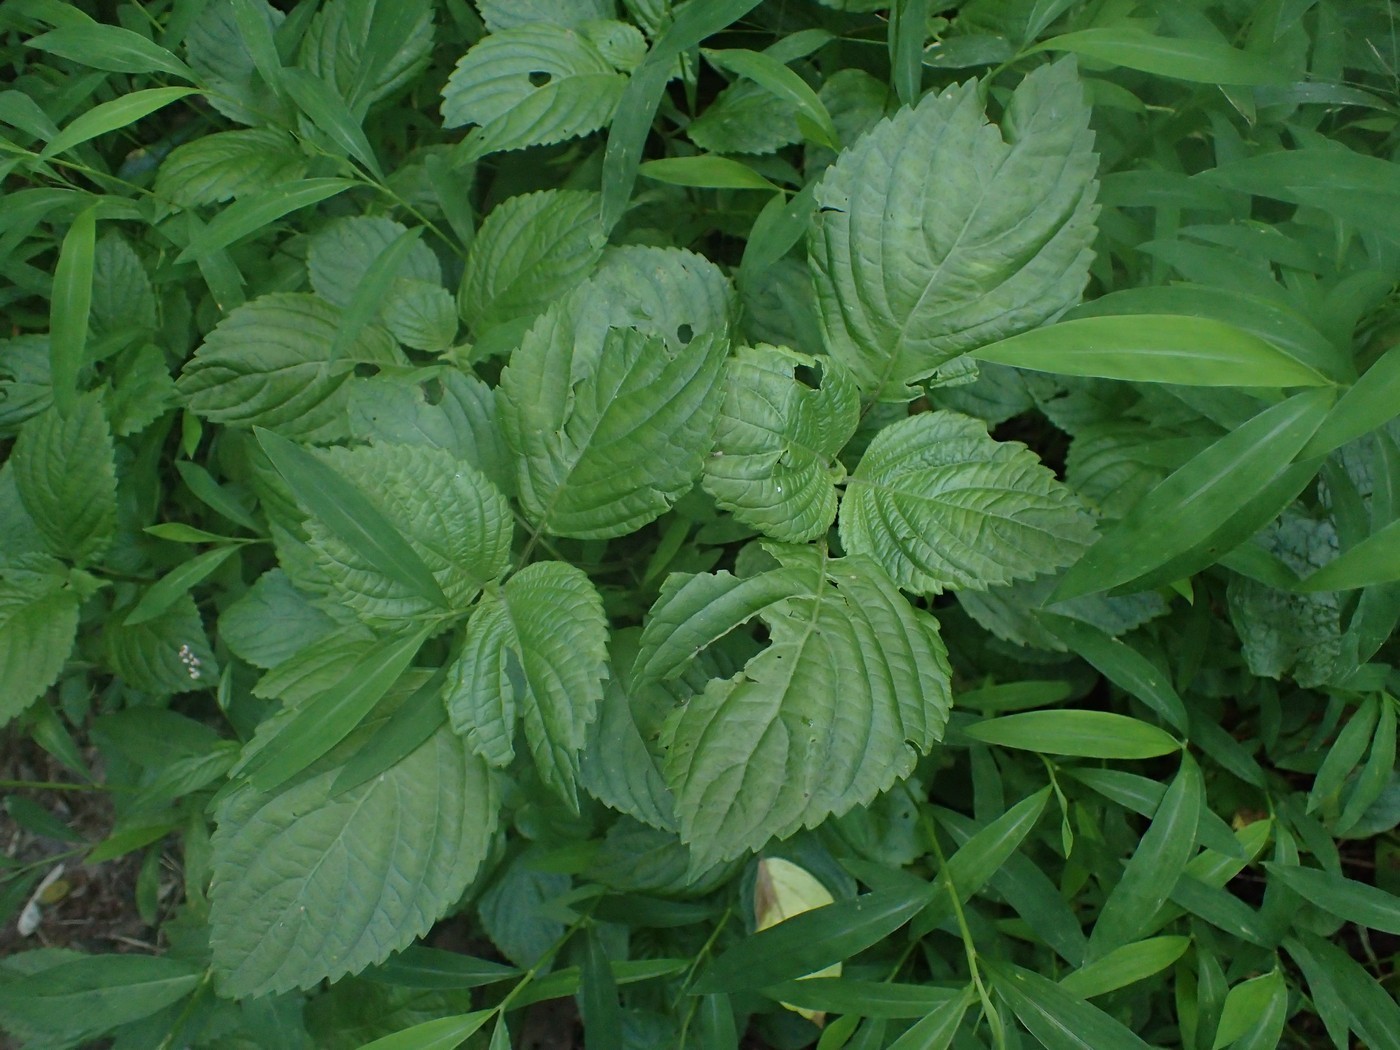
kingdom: Plantae
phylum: Tracheophyta
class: Magnoliopsida
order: Lamiales
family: Lamiaceae
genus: Perilla
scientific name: Perilla frutescens
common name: Perilla
